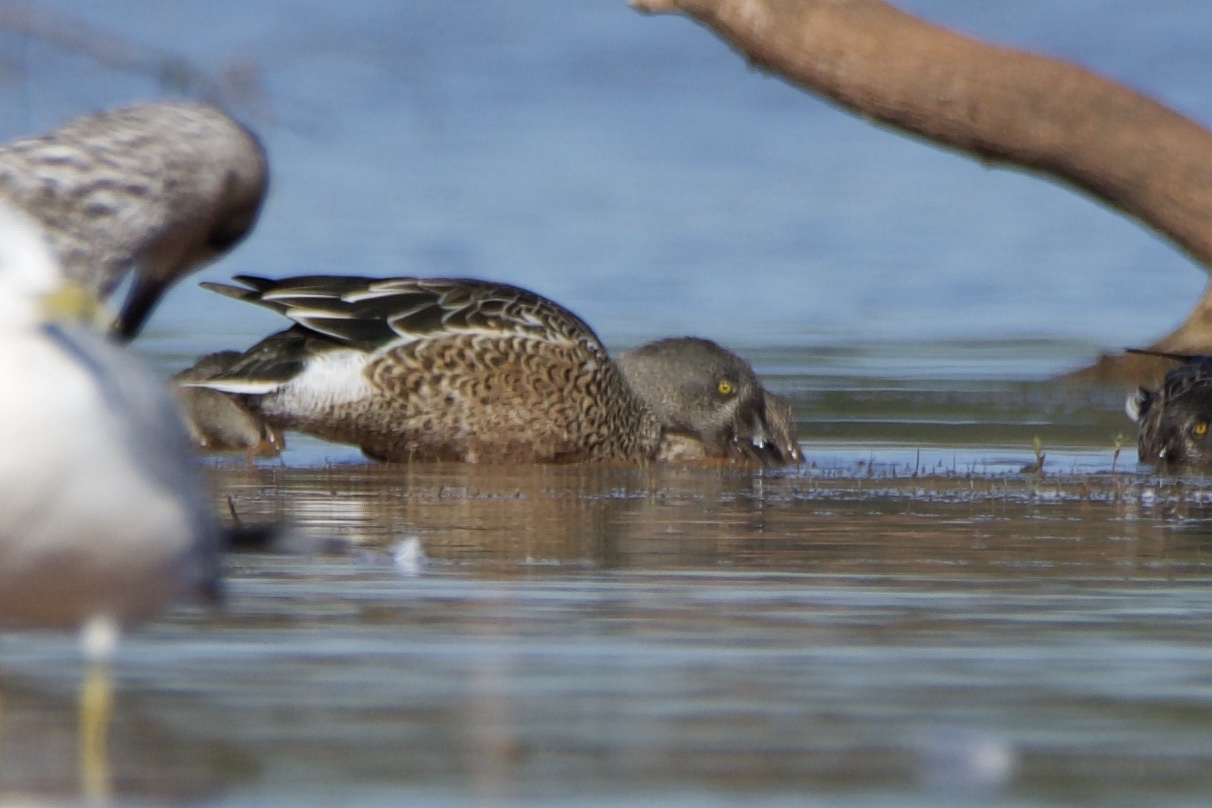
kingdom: Animalia
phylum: Chordata
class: Aves
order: Anseriformes
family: Anatidae
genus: Spatula
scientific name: Spatula clypeata
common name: Northern shoveler
